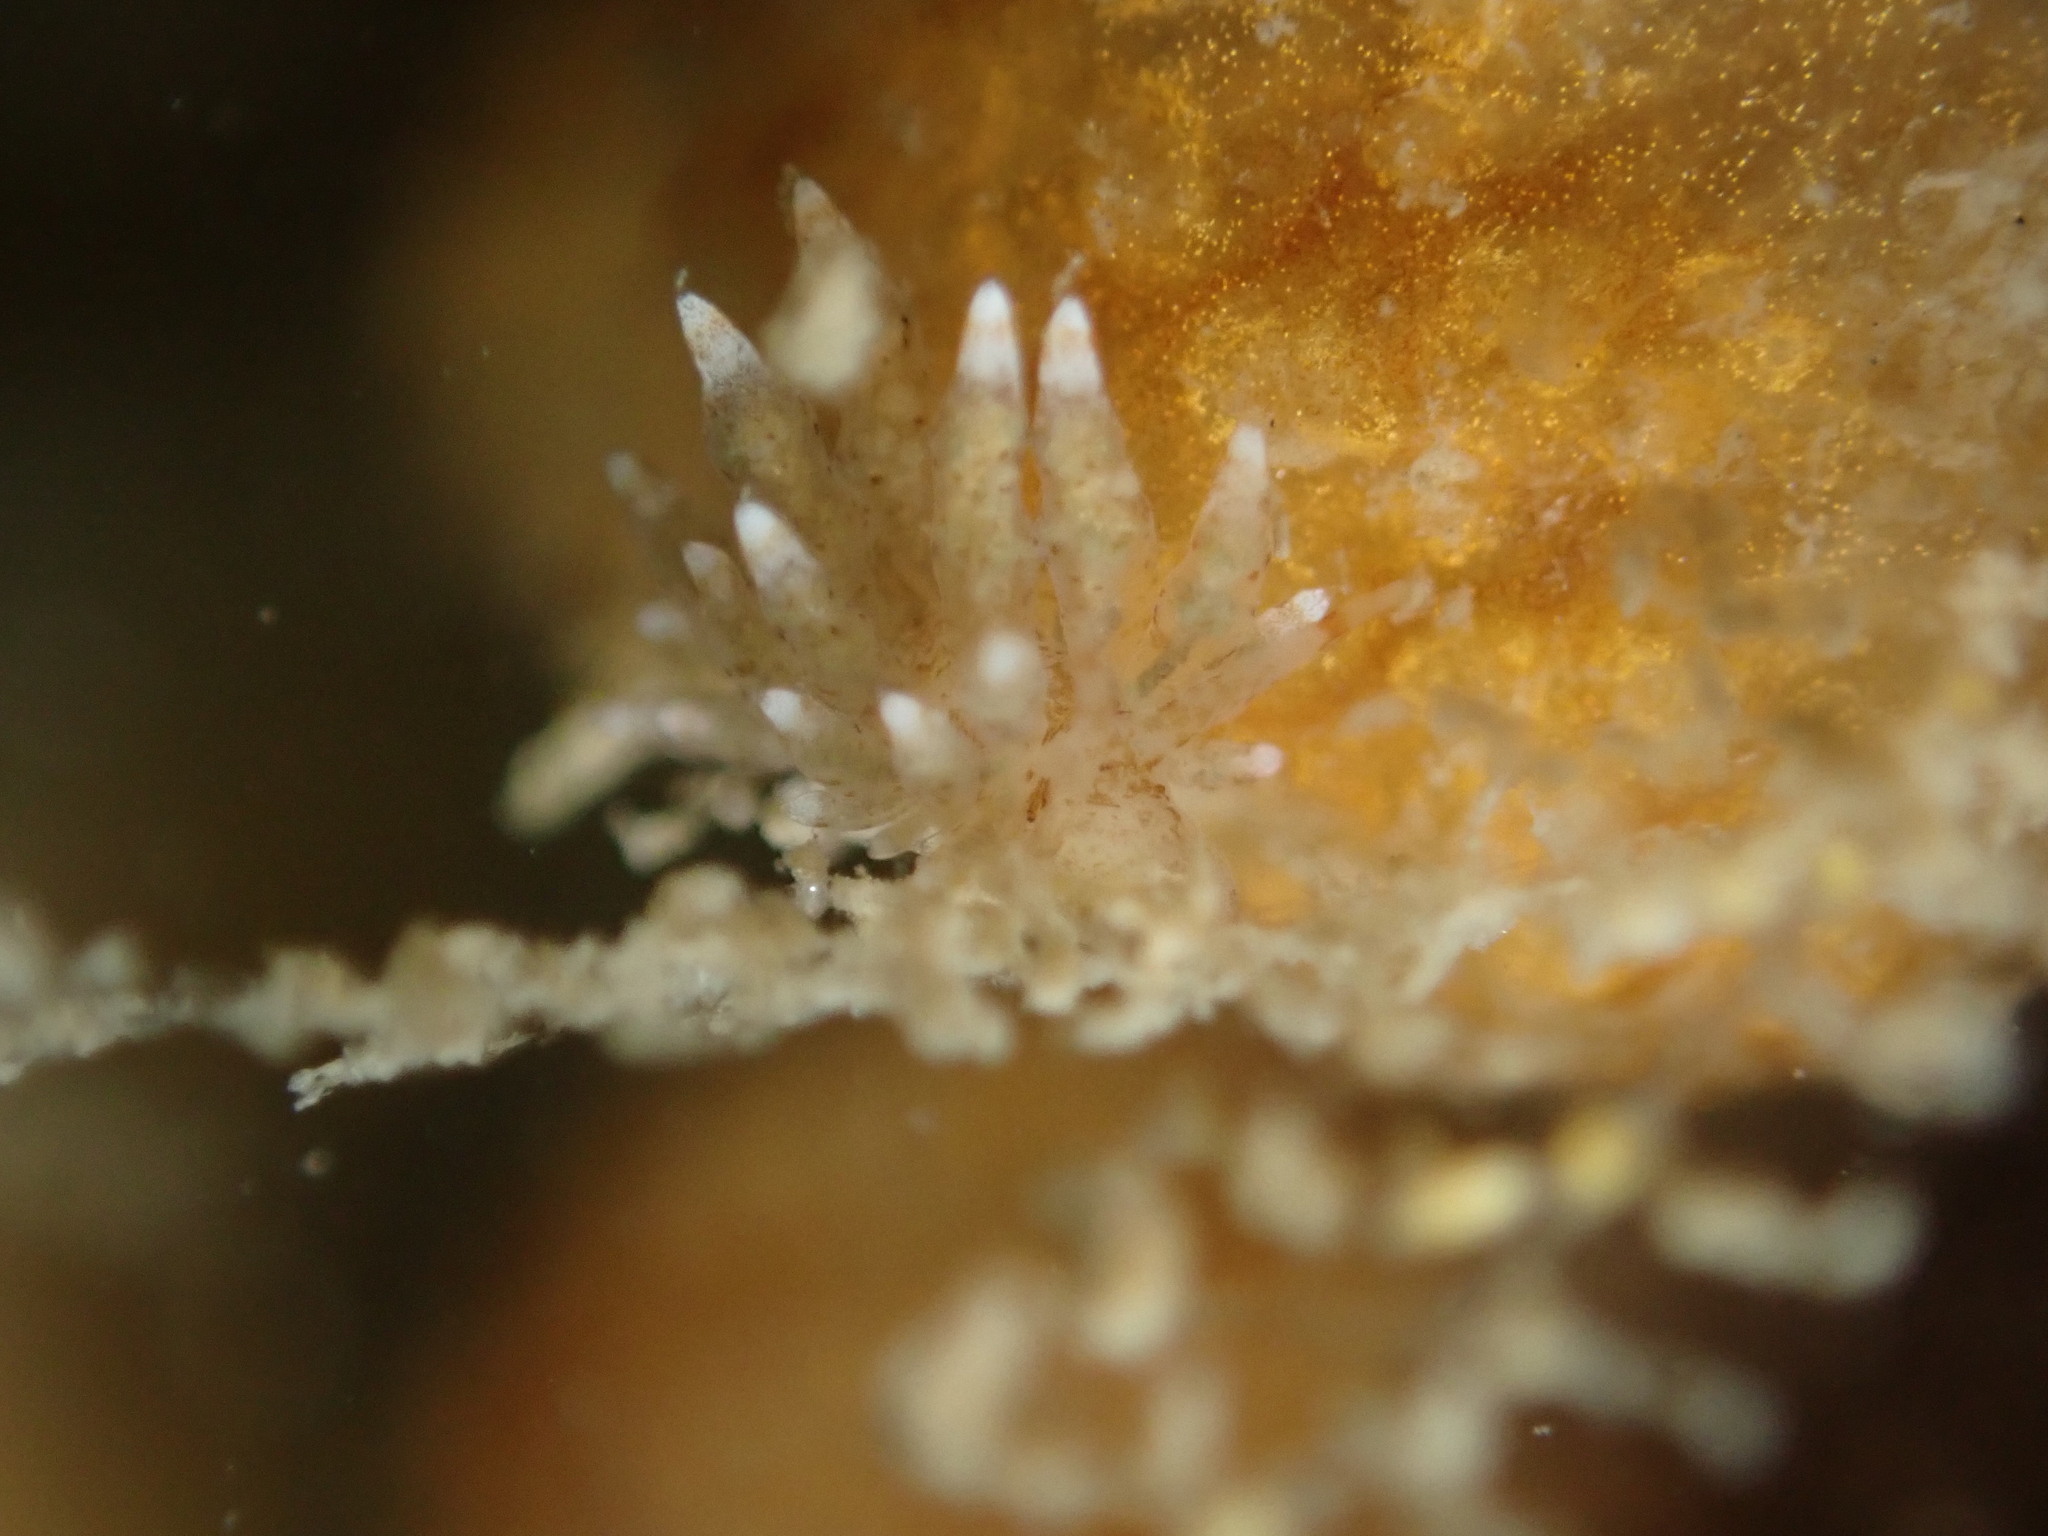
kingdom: Animalia
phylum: Mollusca
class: Gastropoda
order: Nudibranchia
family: Eubranchidae
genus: Eubranchus
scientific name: Eubranchus rustyus
